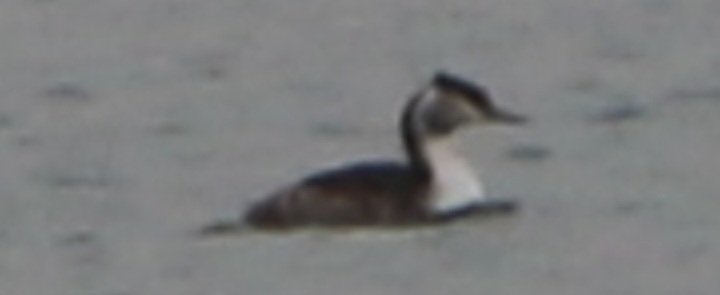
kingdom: Animalia
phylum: Chordata
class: Aves
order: Podicipediformes
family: Podicipedidae
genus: Podiceps
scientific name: Podiceps cristatus
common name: Great crested grebe
